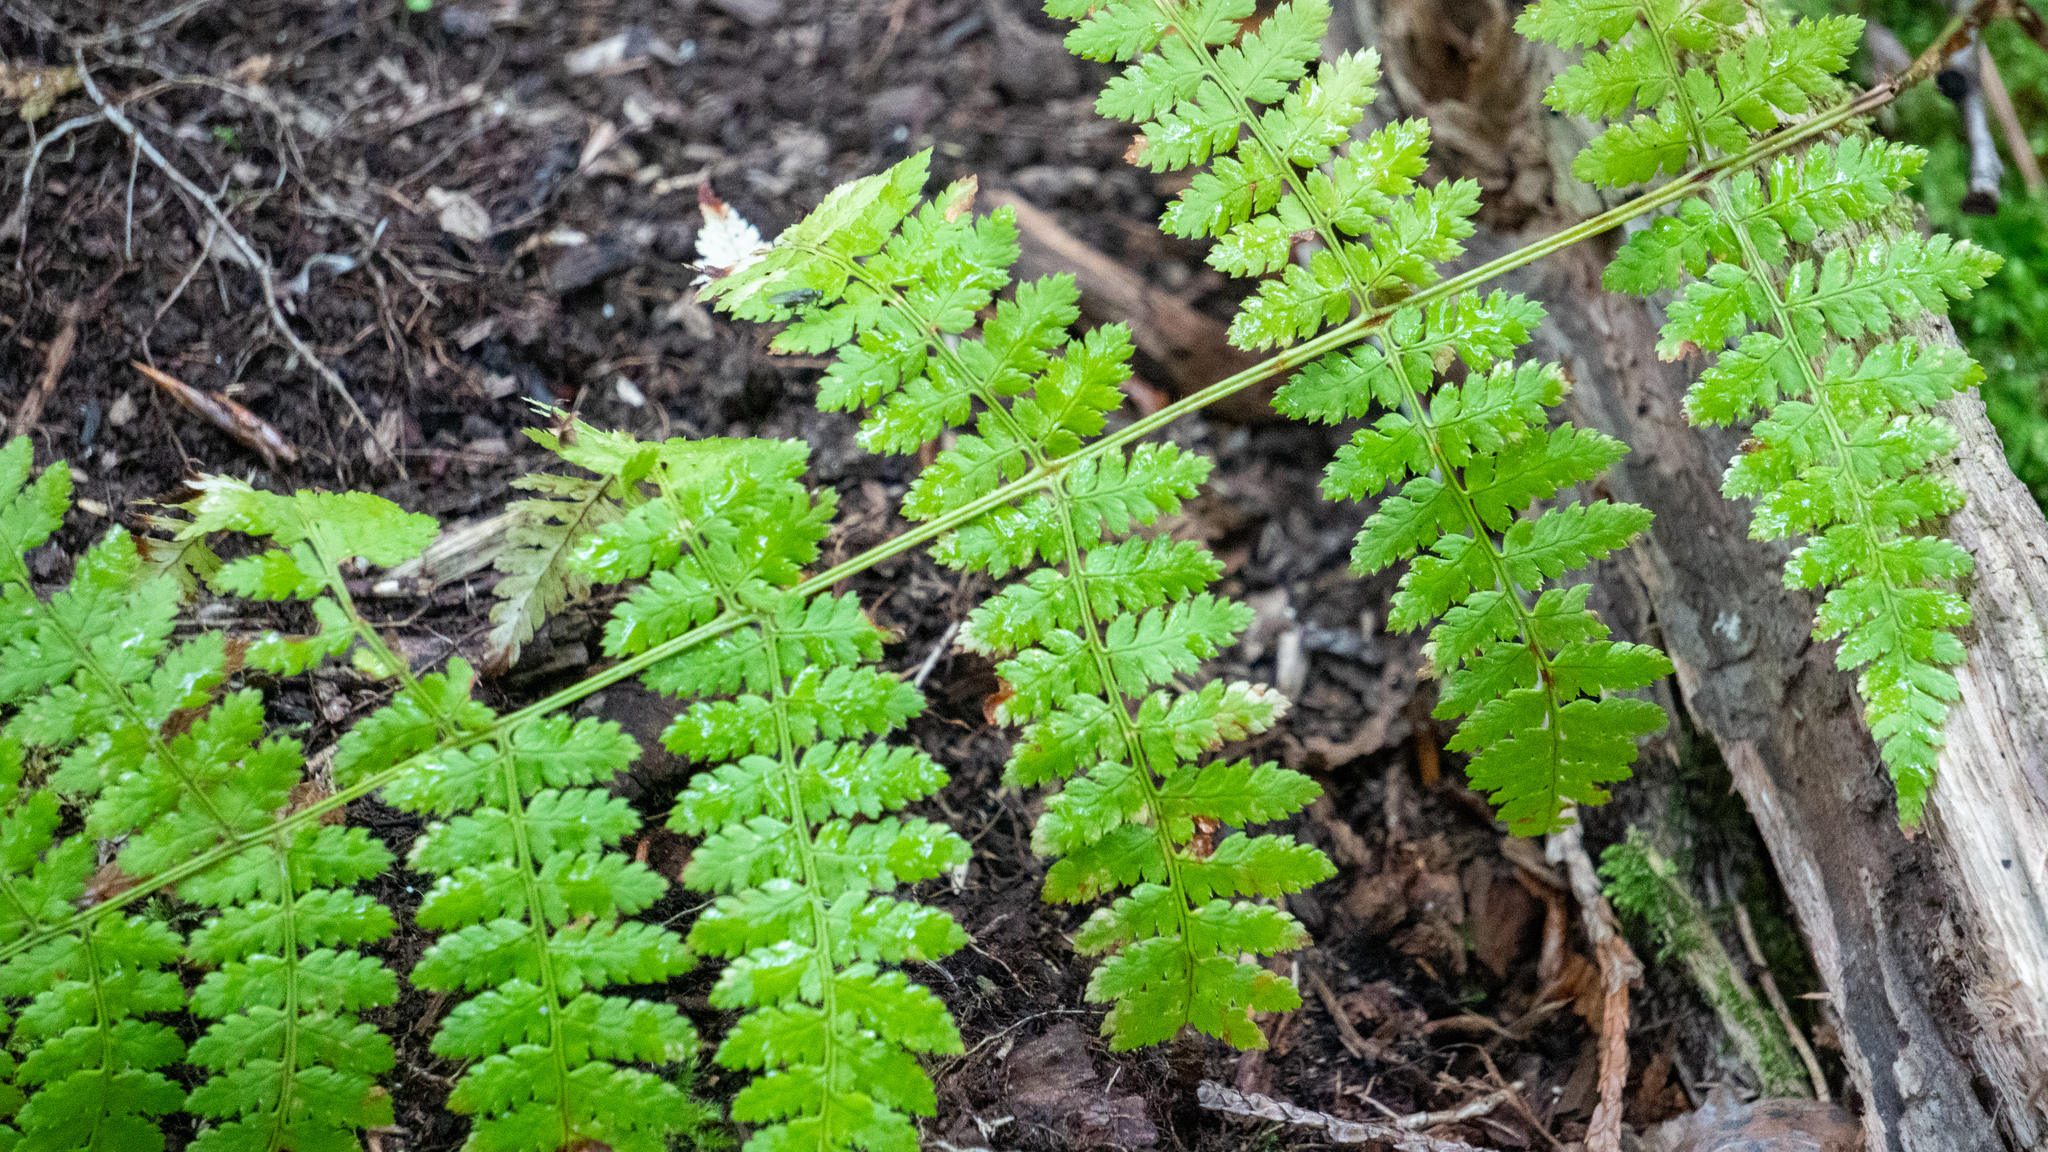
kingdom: Plantae
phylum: Tracheophyta
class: Polypodiopsida
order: Polypodiales
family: Dryopteridaceae
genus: Dryopteris
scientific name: Dryopteris intermedia
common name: Evergreen wood fern
